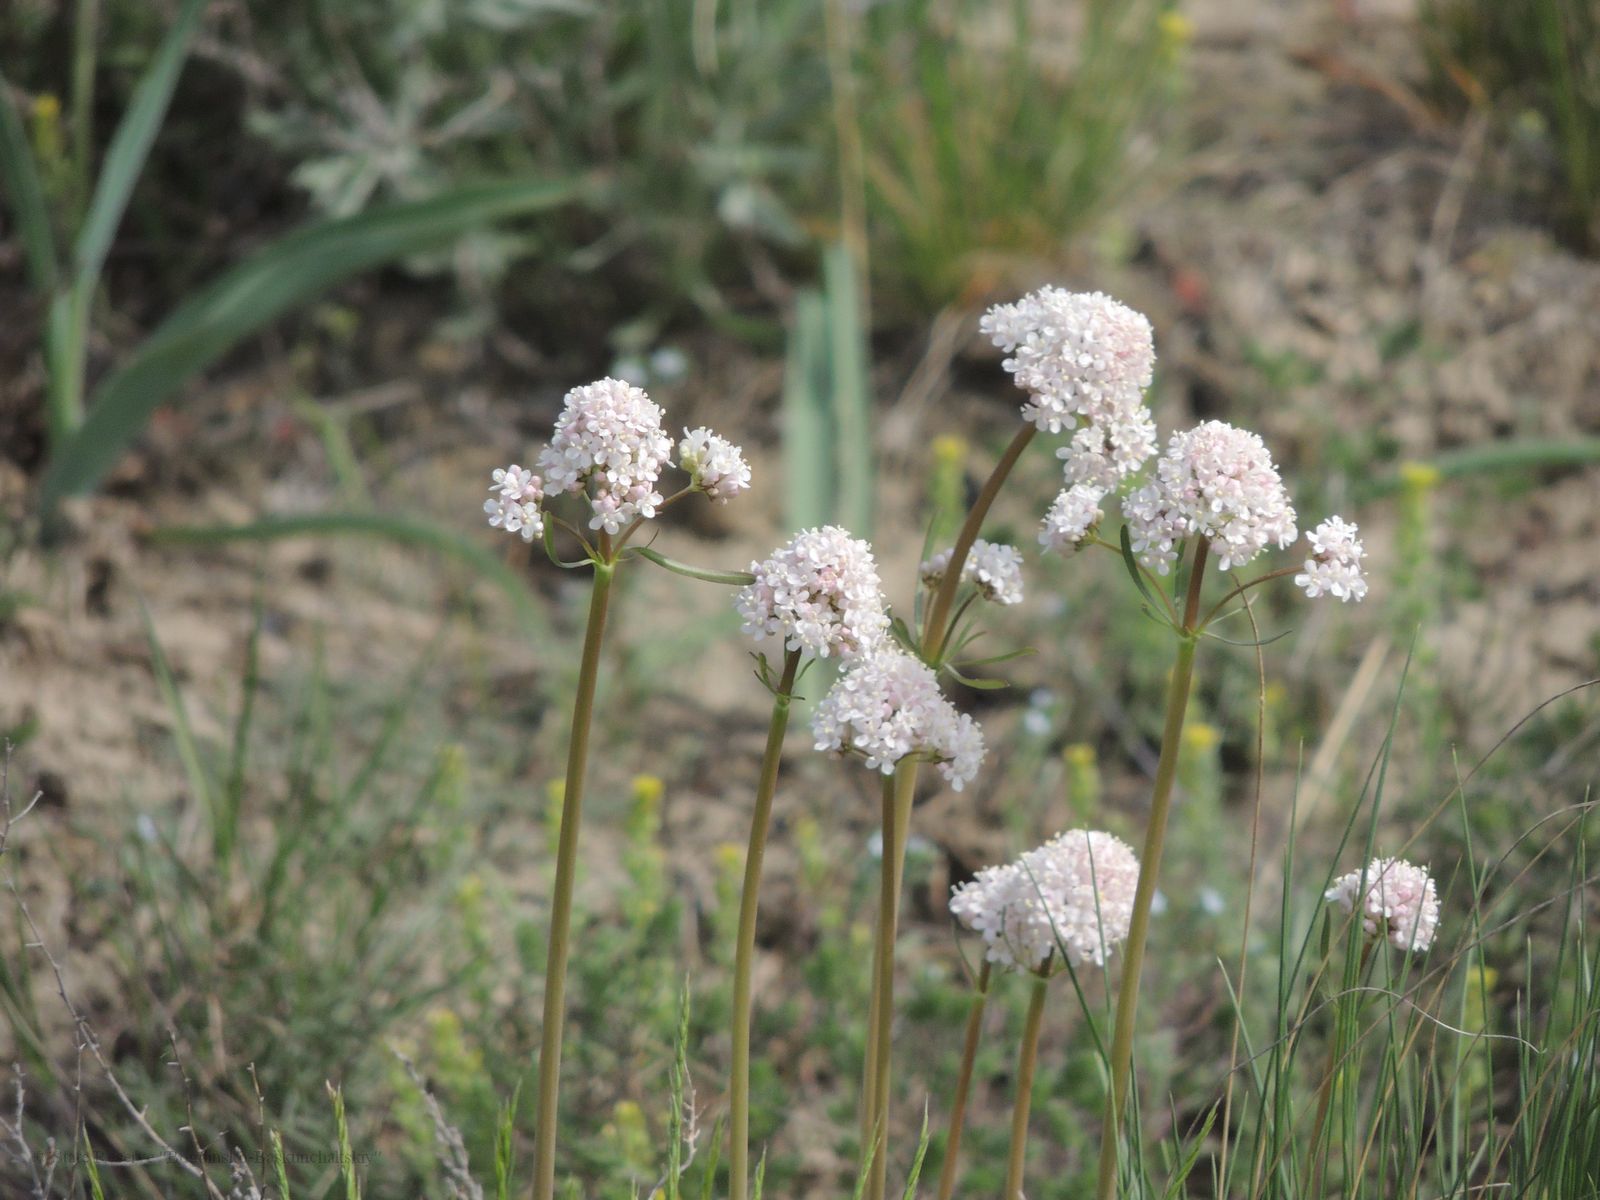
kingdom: Plantae
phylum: Tracheophyta
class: Magnoliopsida
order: Dipsacales
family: Caprifoliaceae
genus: Valeriana
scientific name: Valeriana tuberosa
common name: Tuberous valerian
